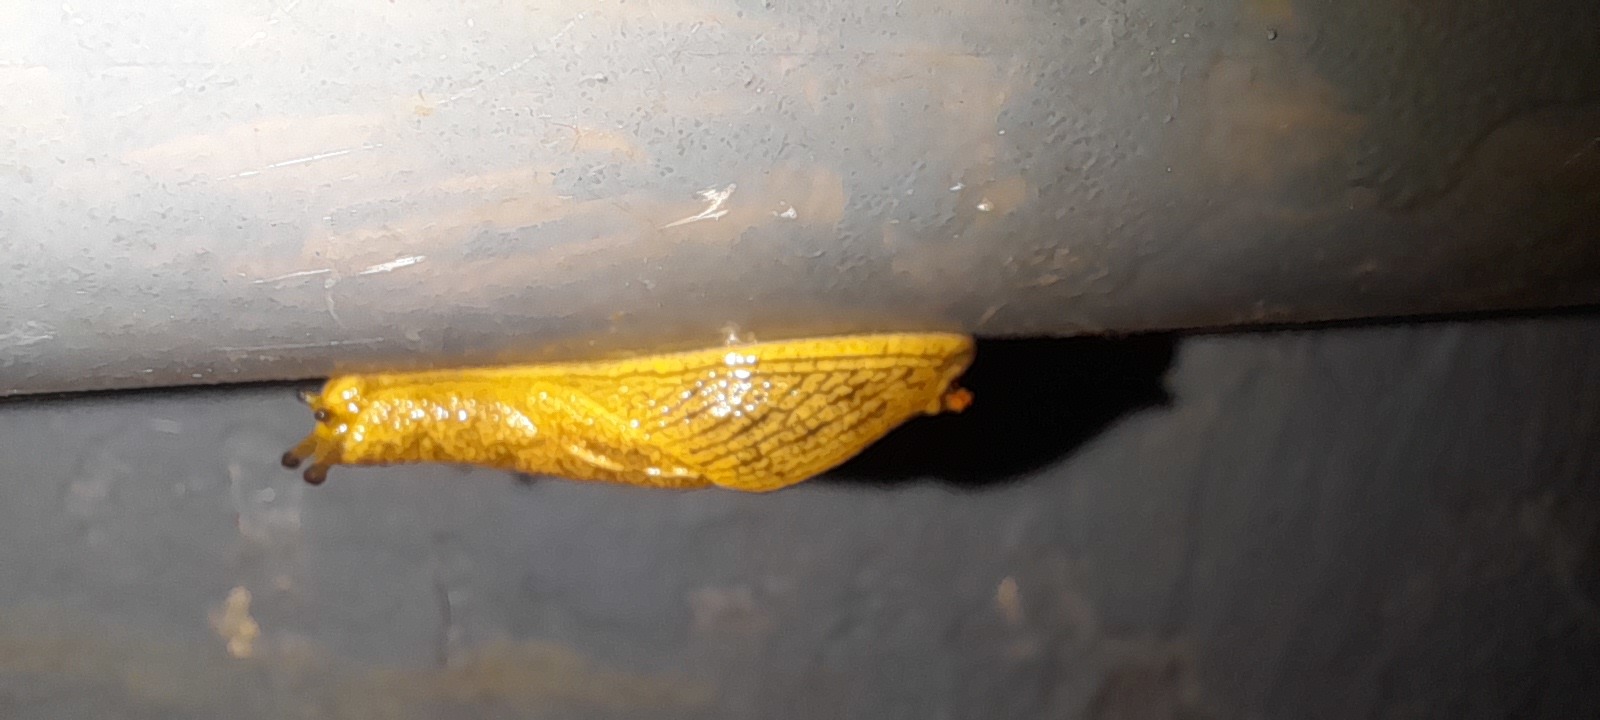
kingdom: Animalia
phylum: Mollusca
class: Gastropoda
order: Stylommatophora
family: Ariophantidae
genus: Mariaella
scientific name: Mariaella dussumieri
